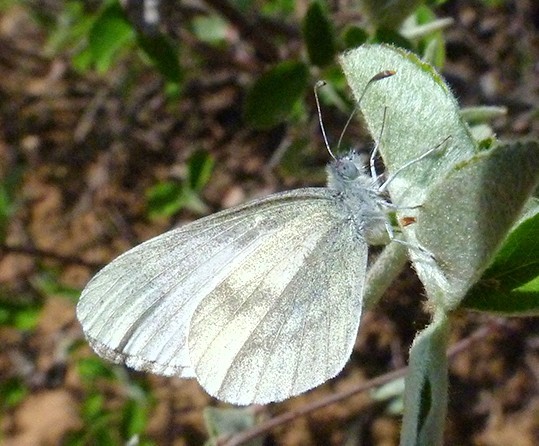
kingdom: Animalia
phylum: Arthropoda
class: Insecta
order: Lepidoptera
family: Pieridae
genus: Leptidea
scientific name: Leptidea sinapis
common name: Wood white
